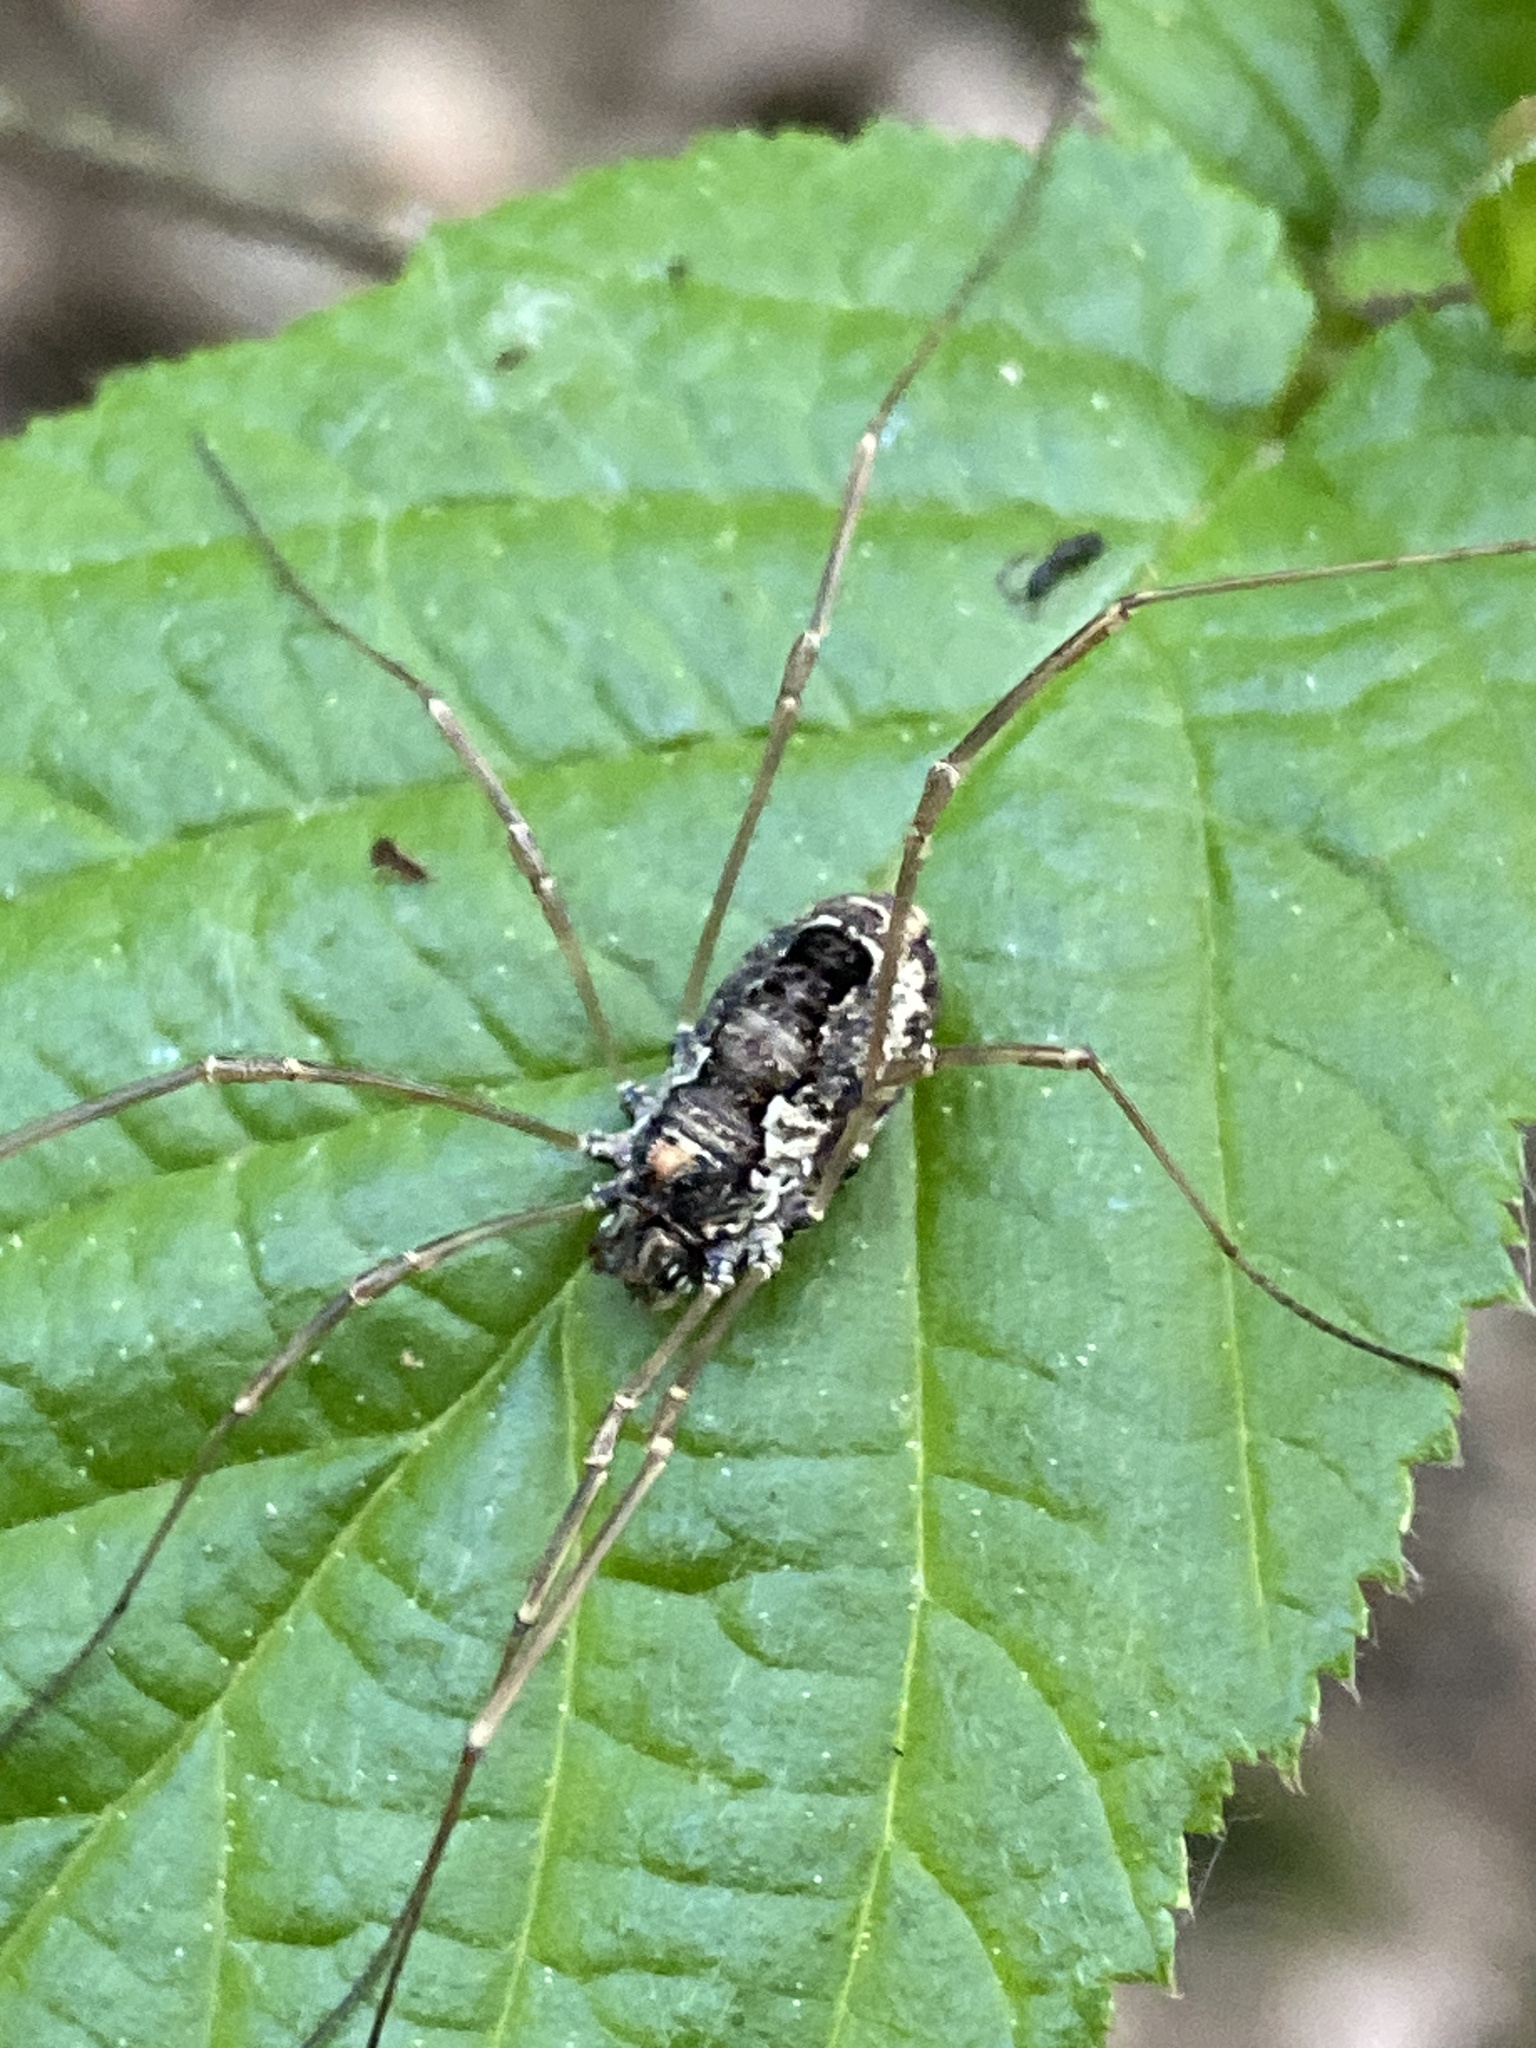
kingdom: Animalia
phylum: Arthropoda
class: Arachnida
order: Opiliones
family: Phalangiidae
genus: Platybunus
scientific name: Platybunus pinetorum
